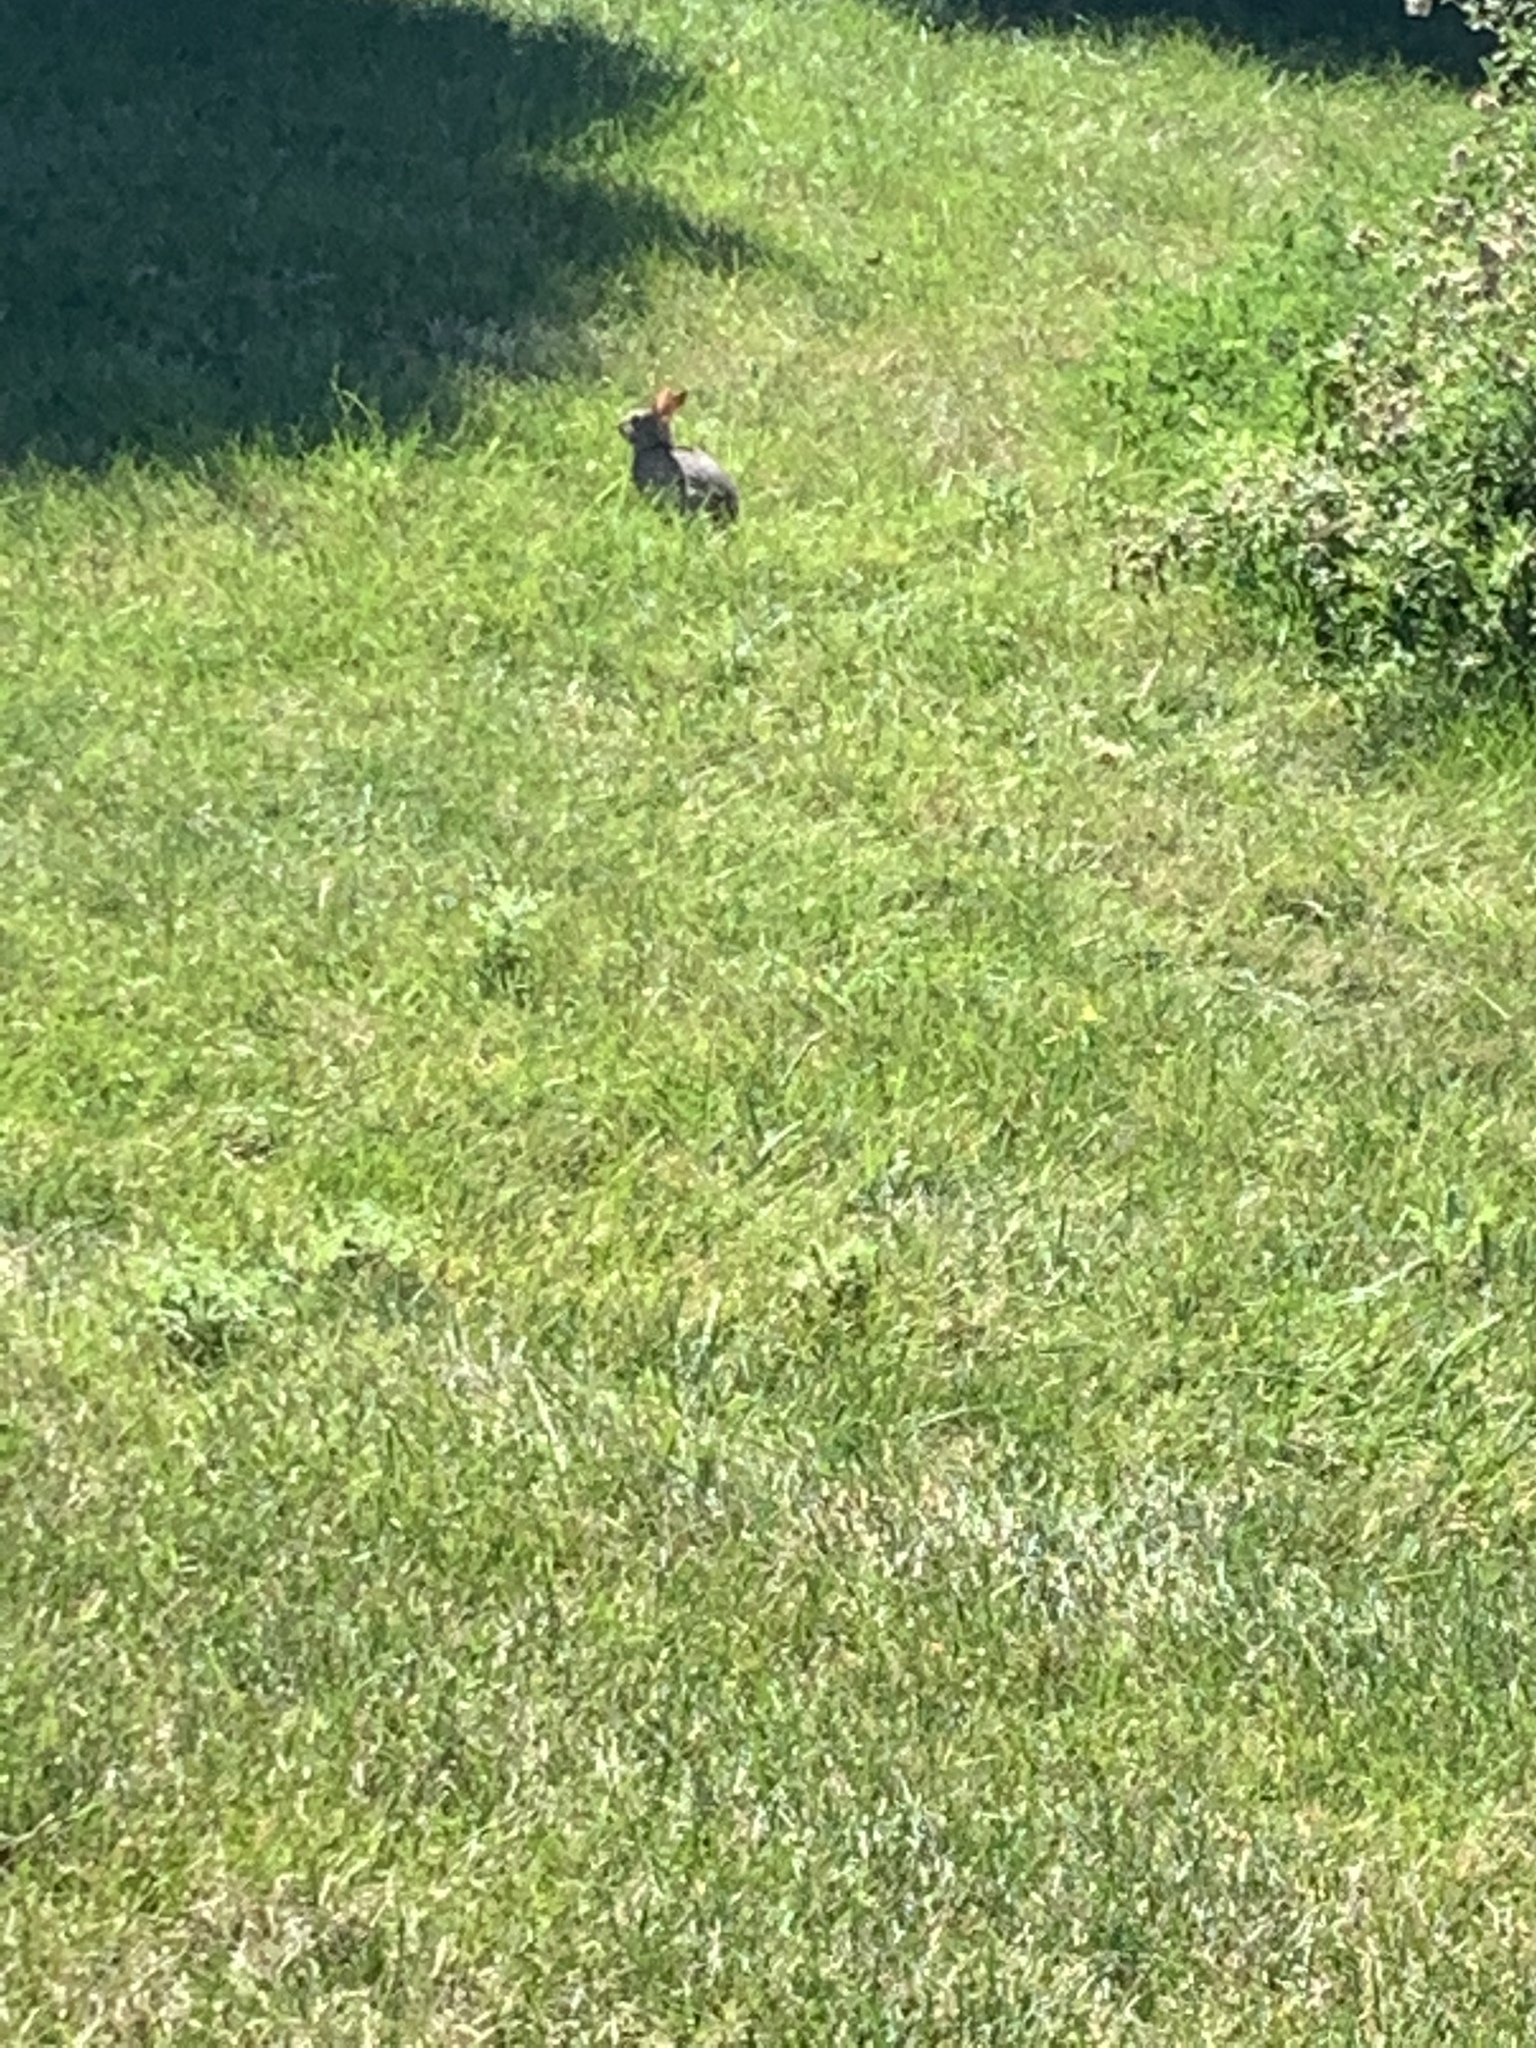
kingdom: Animalia
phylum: Chordata
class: Mammalia
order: Lagomorpha
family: Leporidae
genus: Sylvilagus
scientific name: Sylvilagus floridanus
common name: Eastern cottontail
